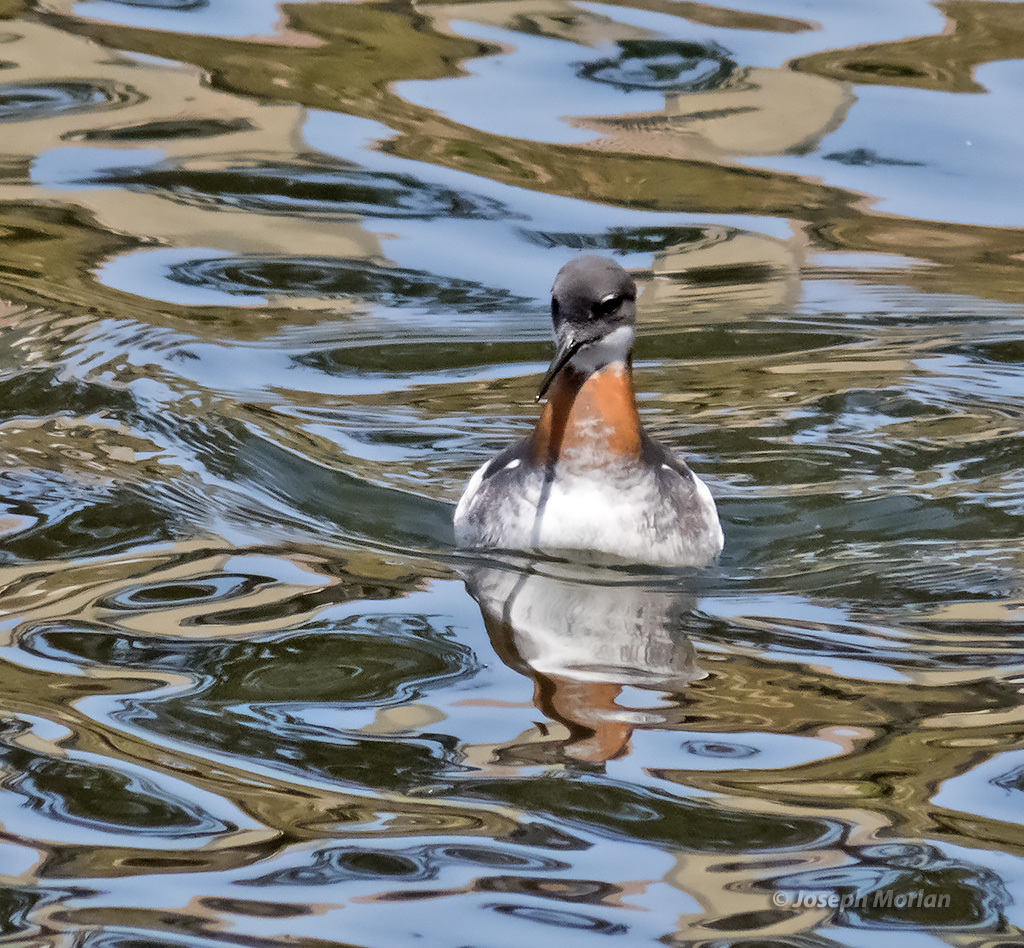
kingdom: Animalia
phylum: Chordata
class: Aves
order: Charadriiformes
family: Scolopacidae
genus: Phalaropus
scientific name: Phalaropus lobatus
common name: Red-necked phalarope
